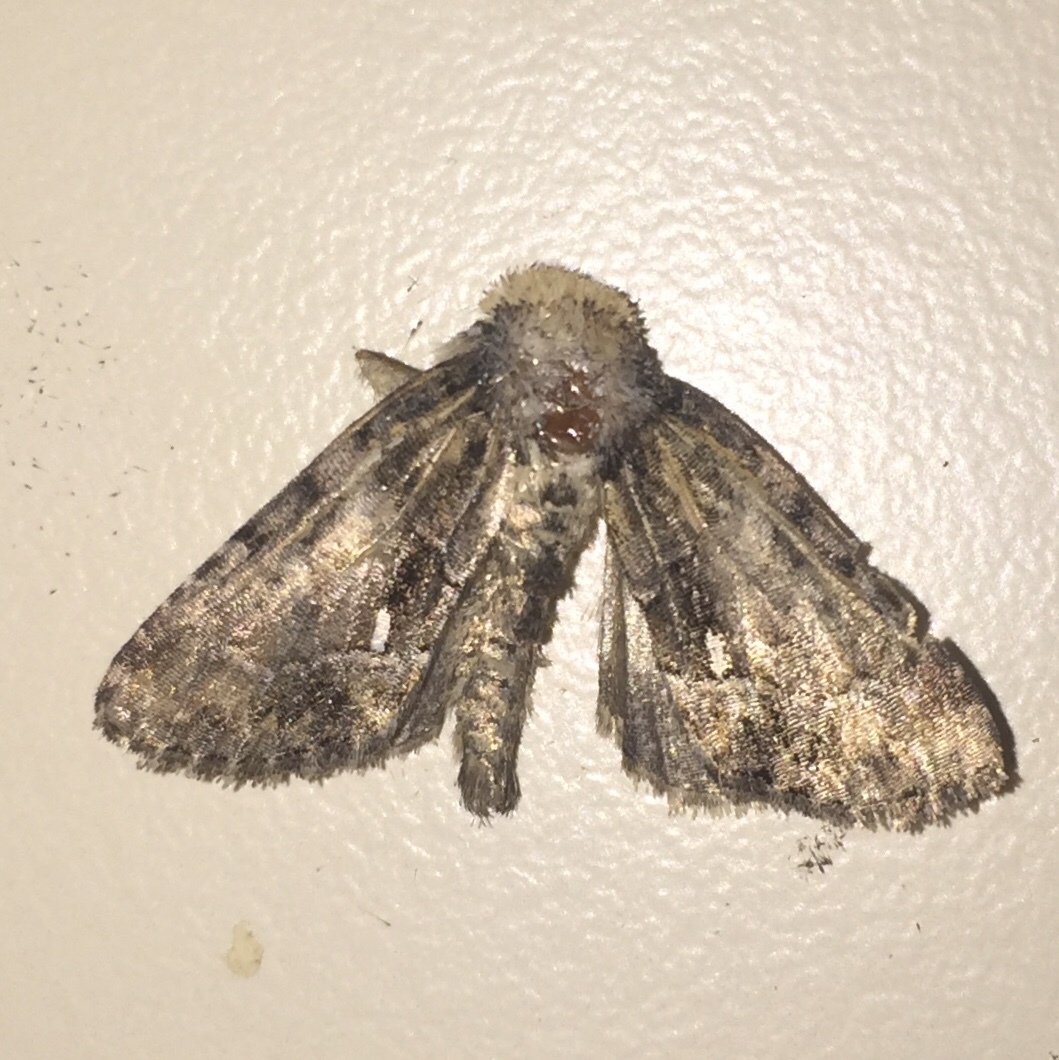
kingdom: Animalia
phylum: Arthropoda
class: Insecta
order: Lepidoptera
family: Noctuidae
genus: Chytonix
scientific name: Chytonix palliatricula
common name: Cloaked marvel
